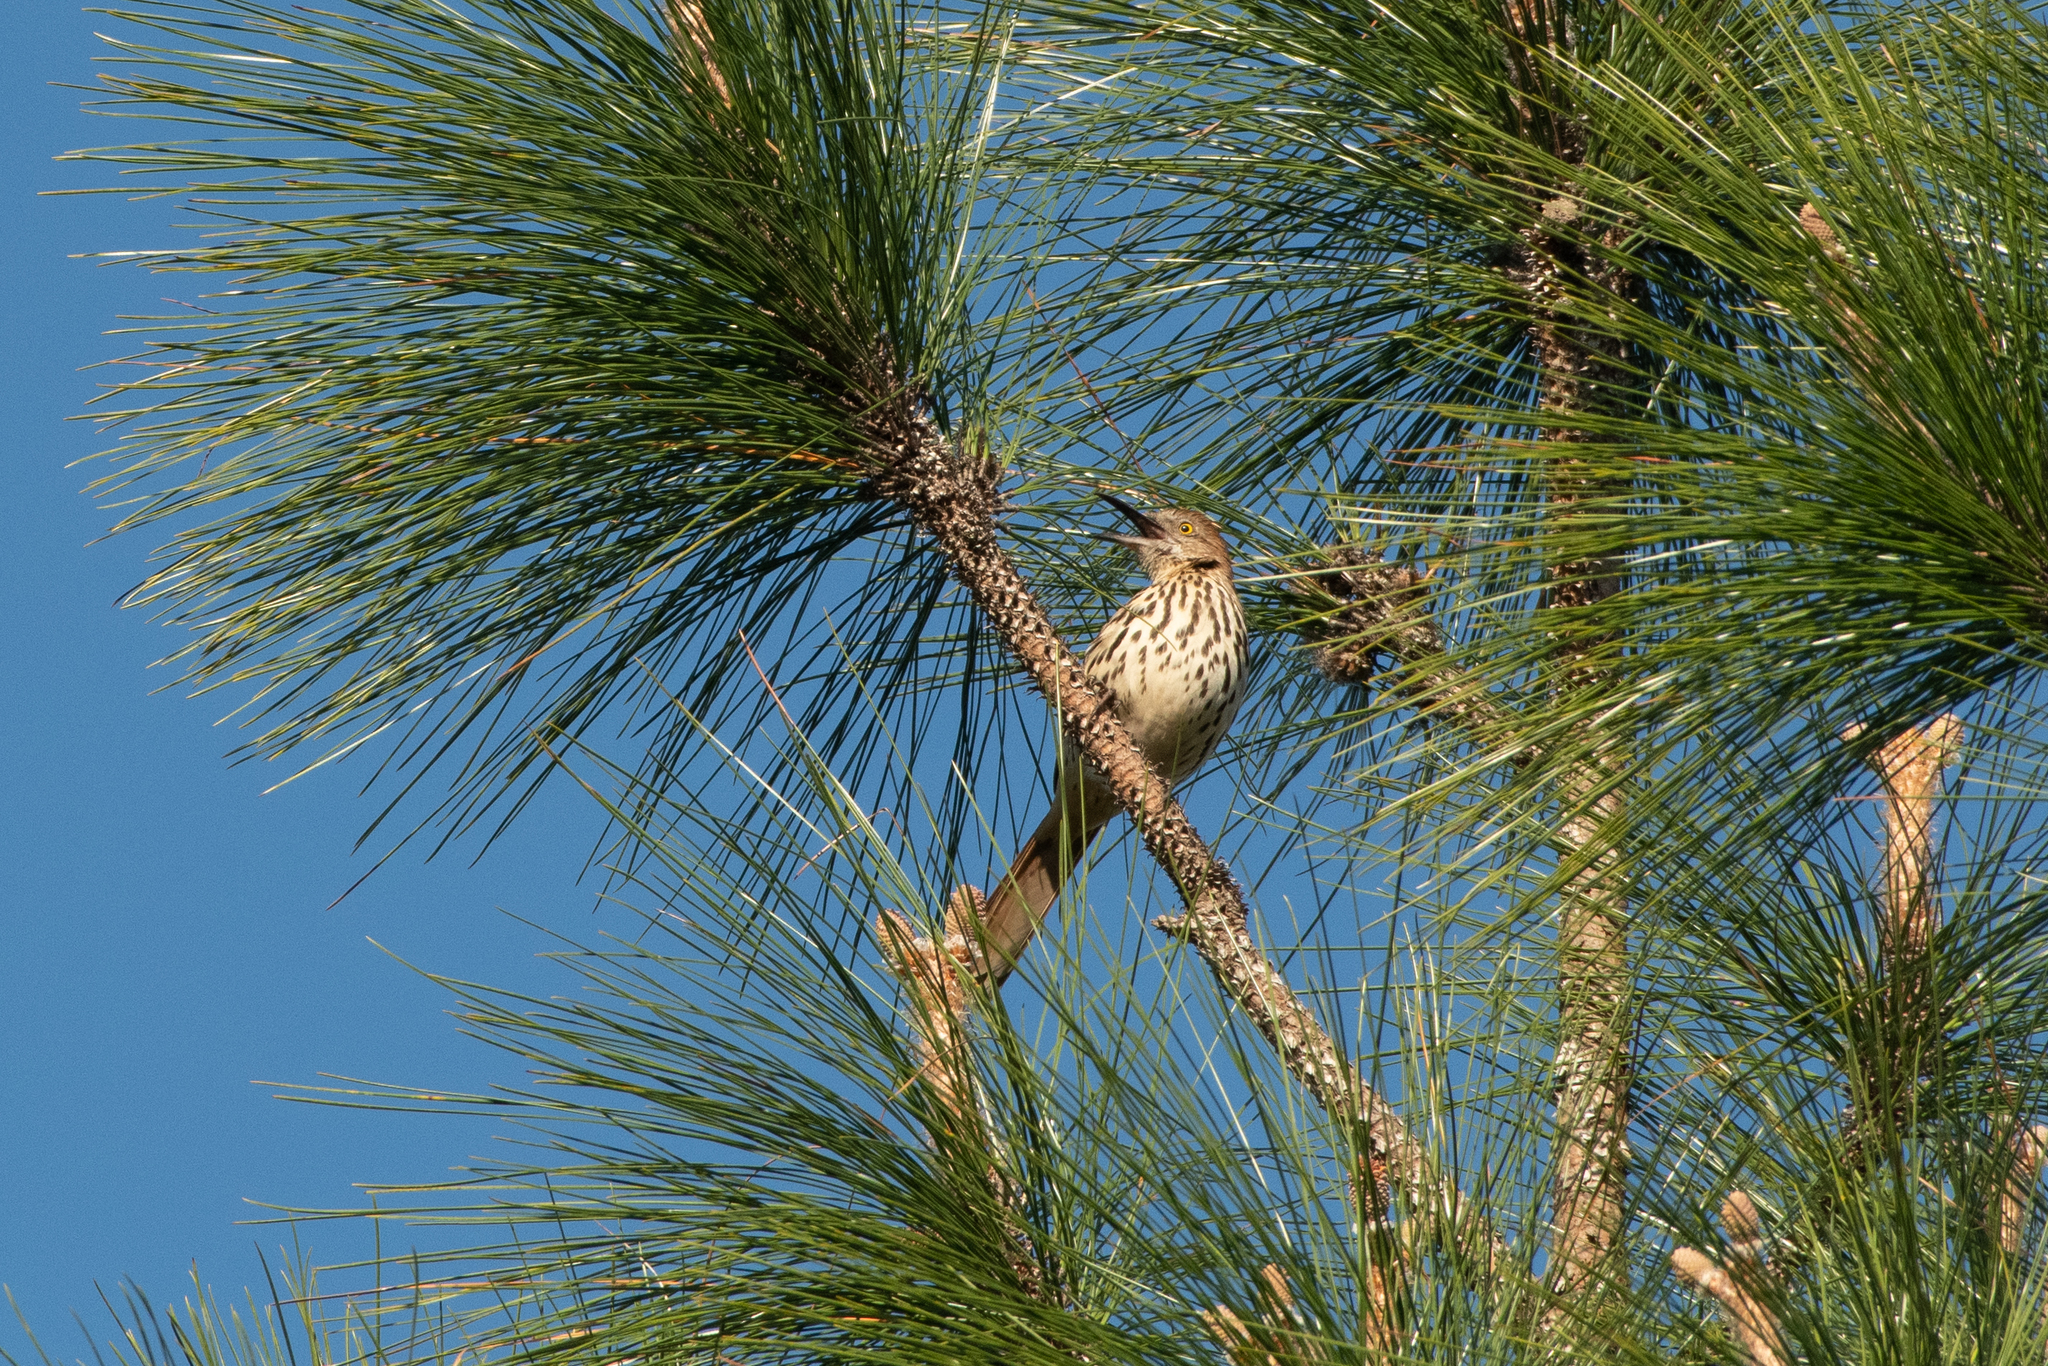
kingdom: Animalia
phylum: Chordata
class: Aves
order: Passeriformes
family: Mimidae
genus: Toxostoma
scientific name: Toxostoma rufum
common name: Brown thrasher
